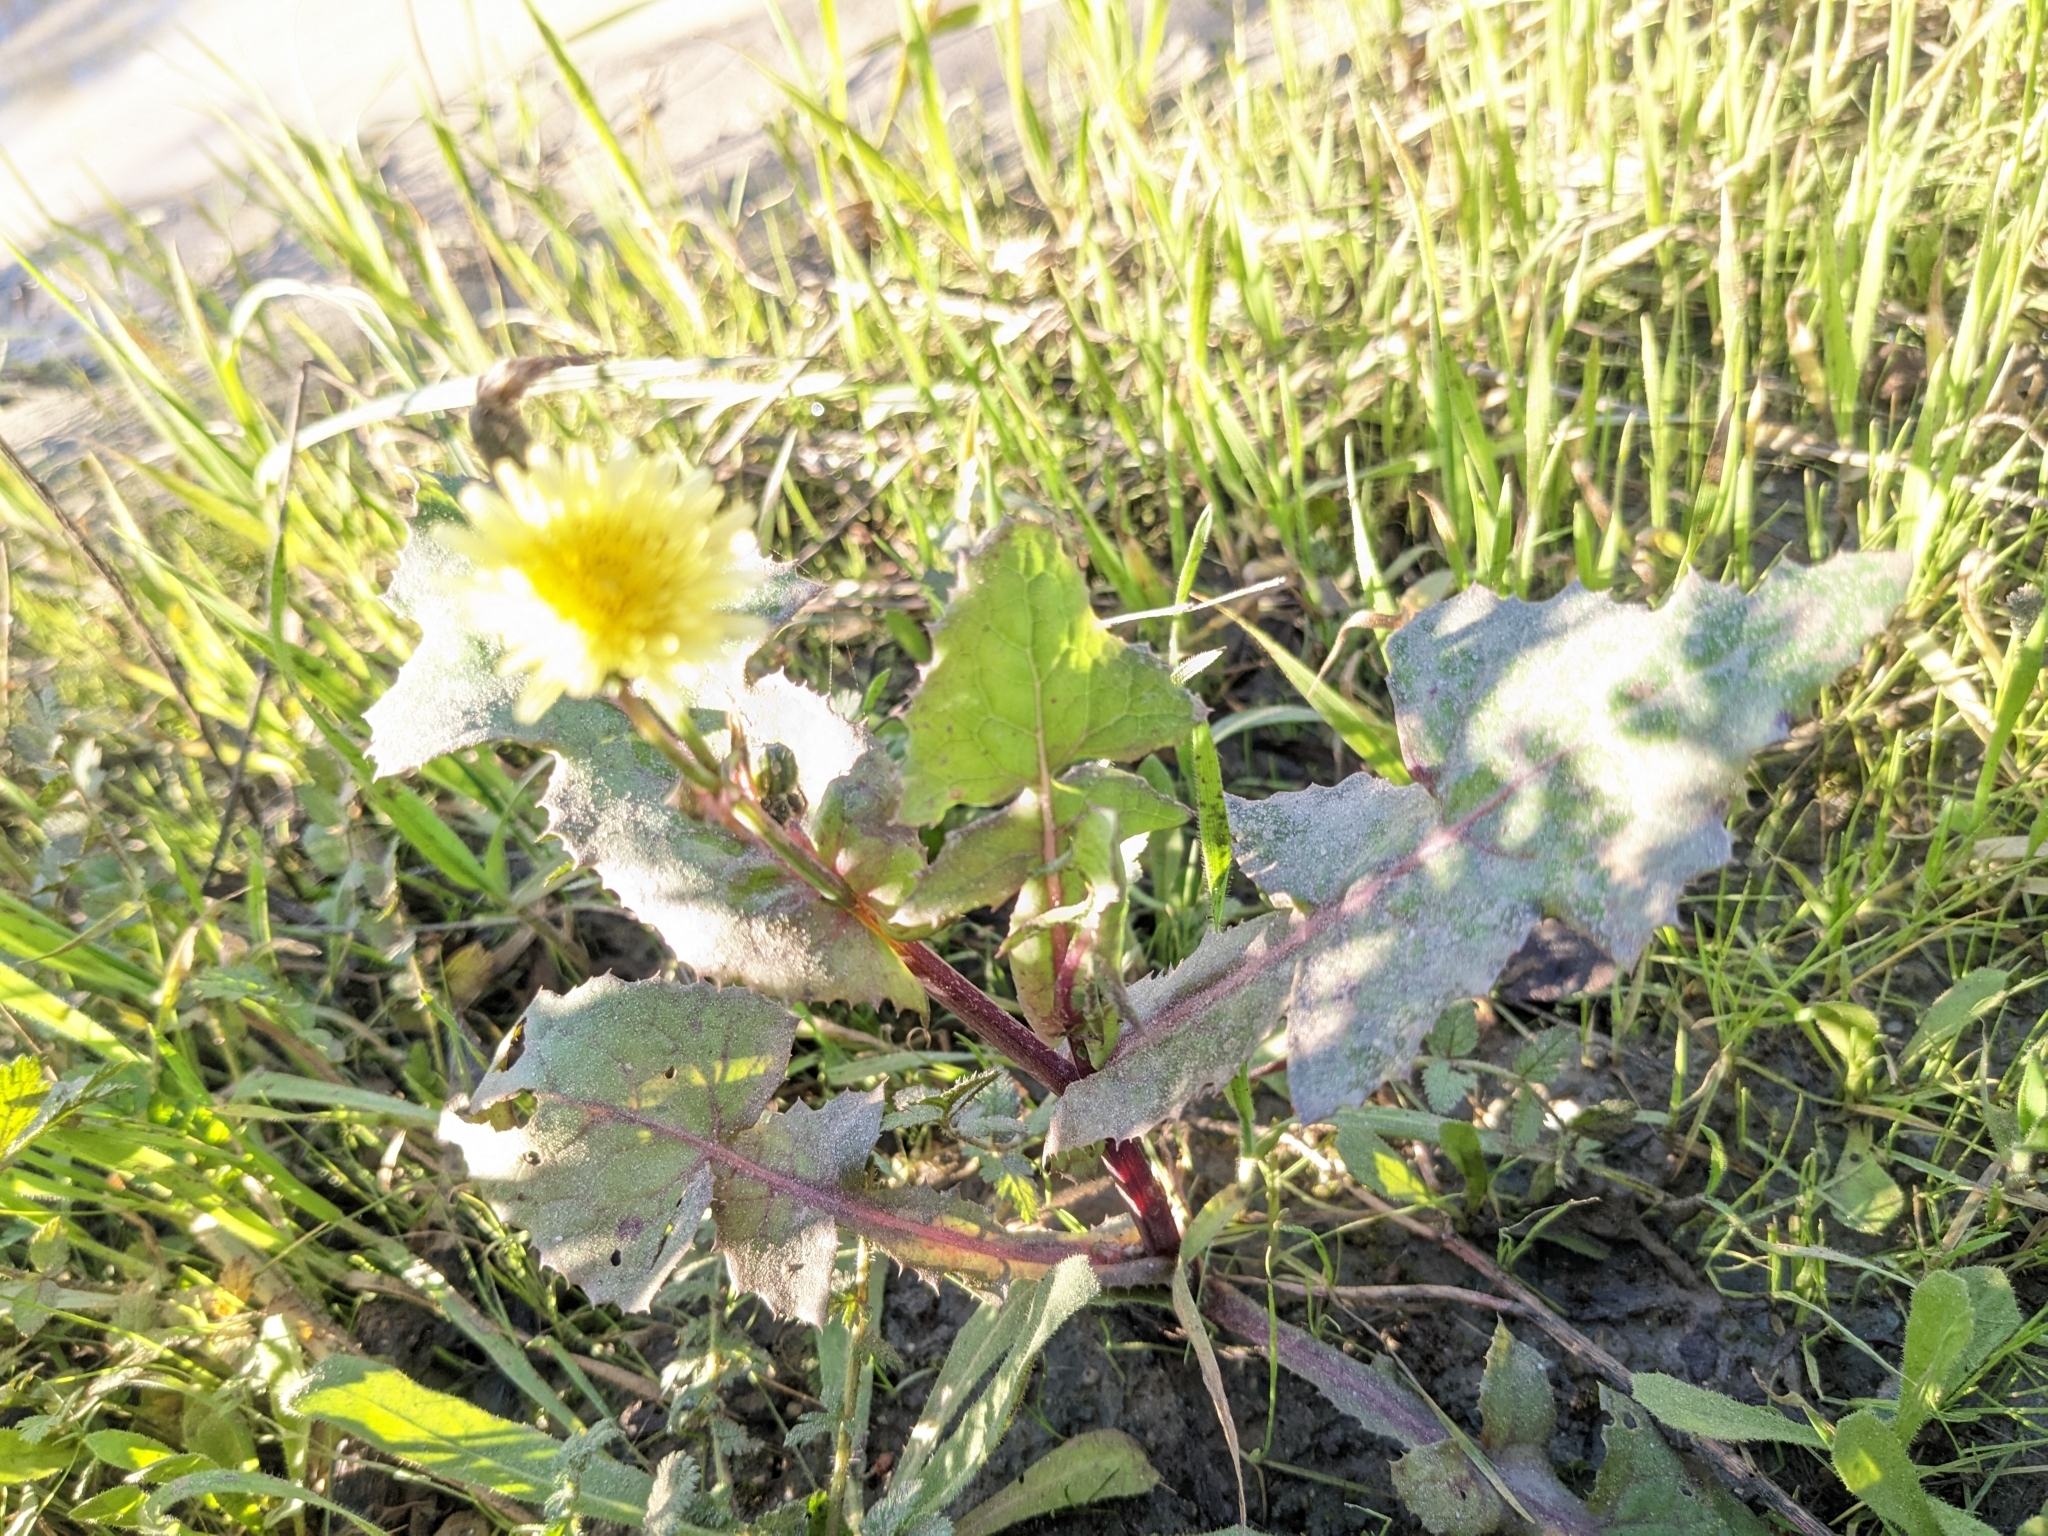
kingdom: Plantae
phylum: Tracheophyta
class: Magnoliopsida
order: Asterales
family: Asteraceae
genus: Sonchus
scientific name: Sonchus oleraceus
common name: Common sowthistle
